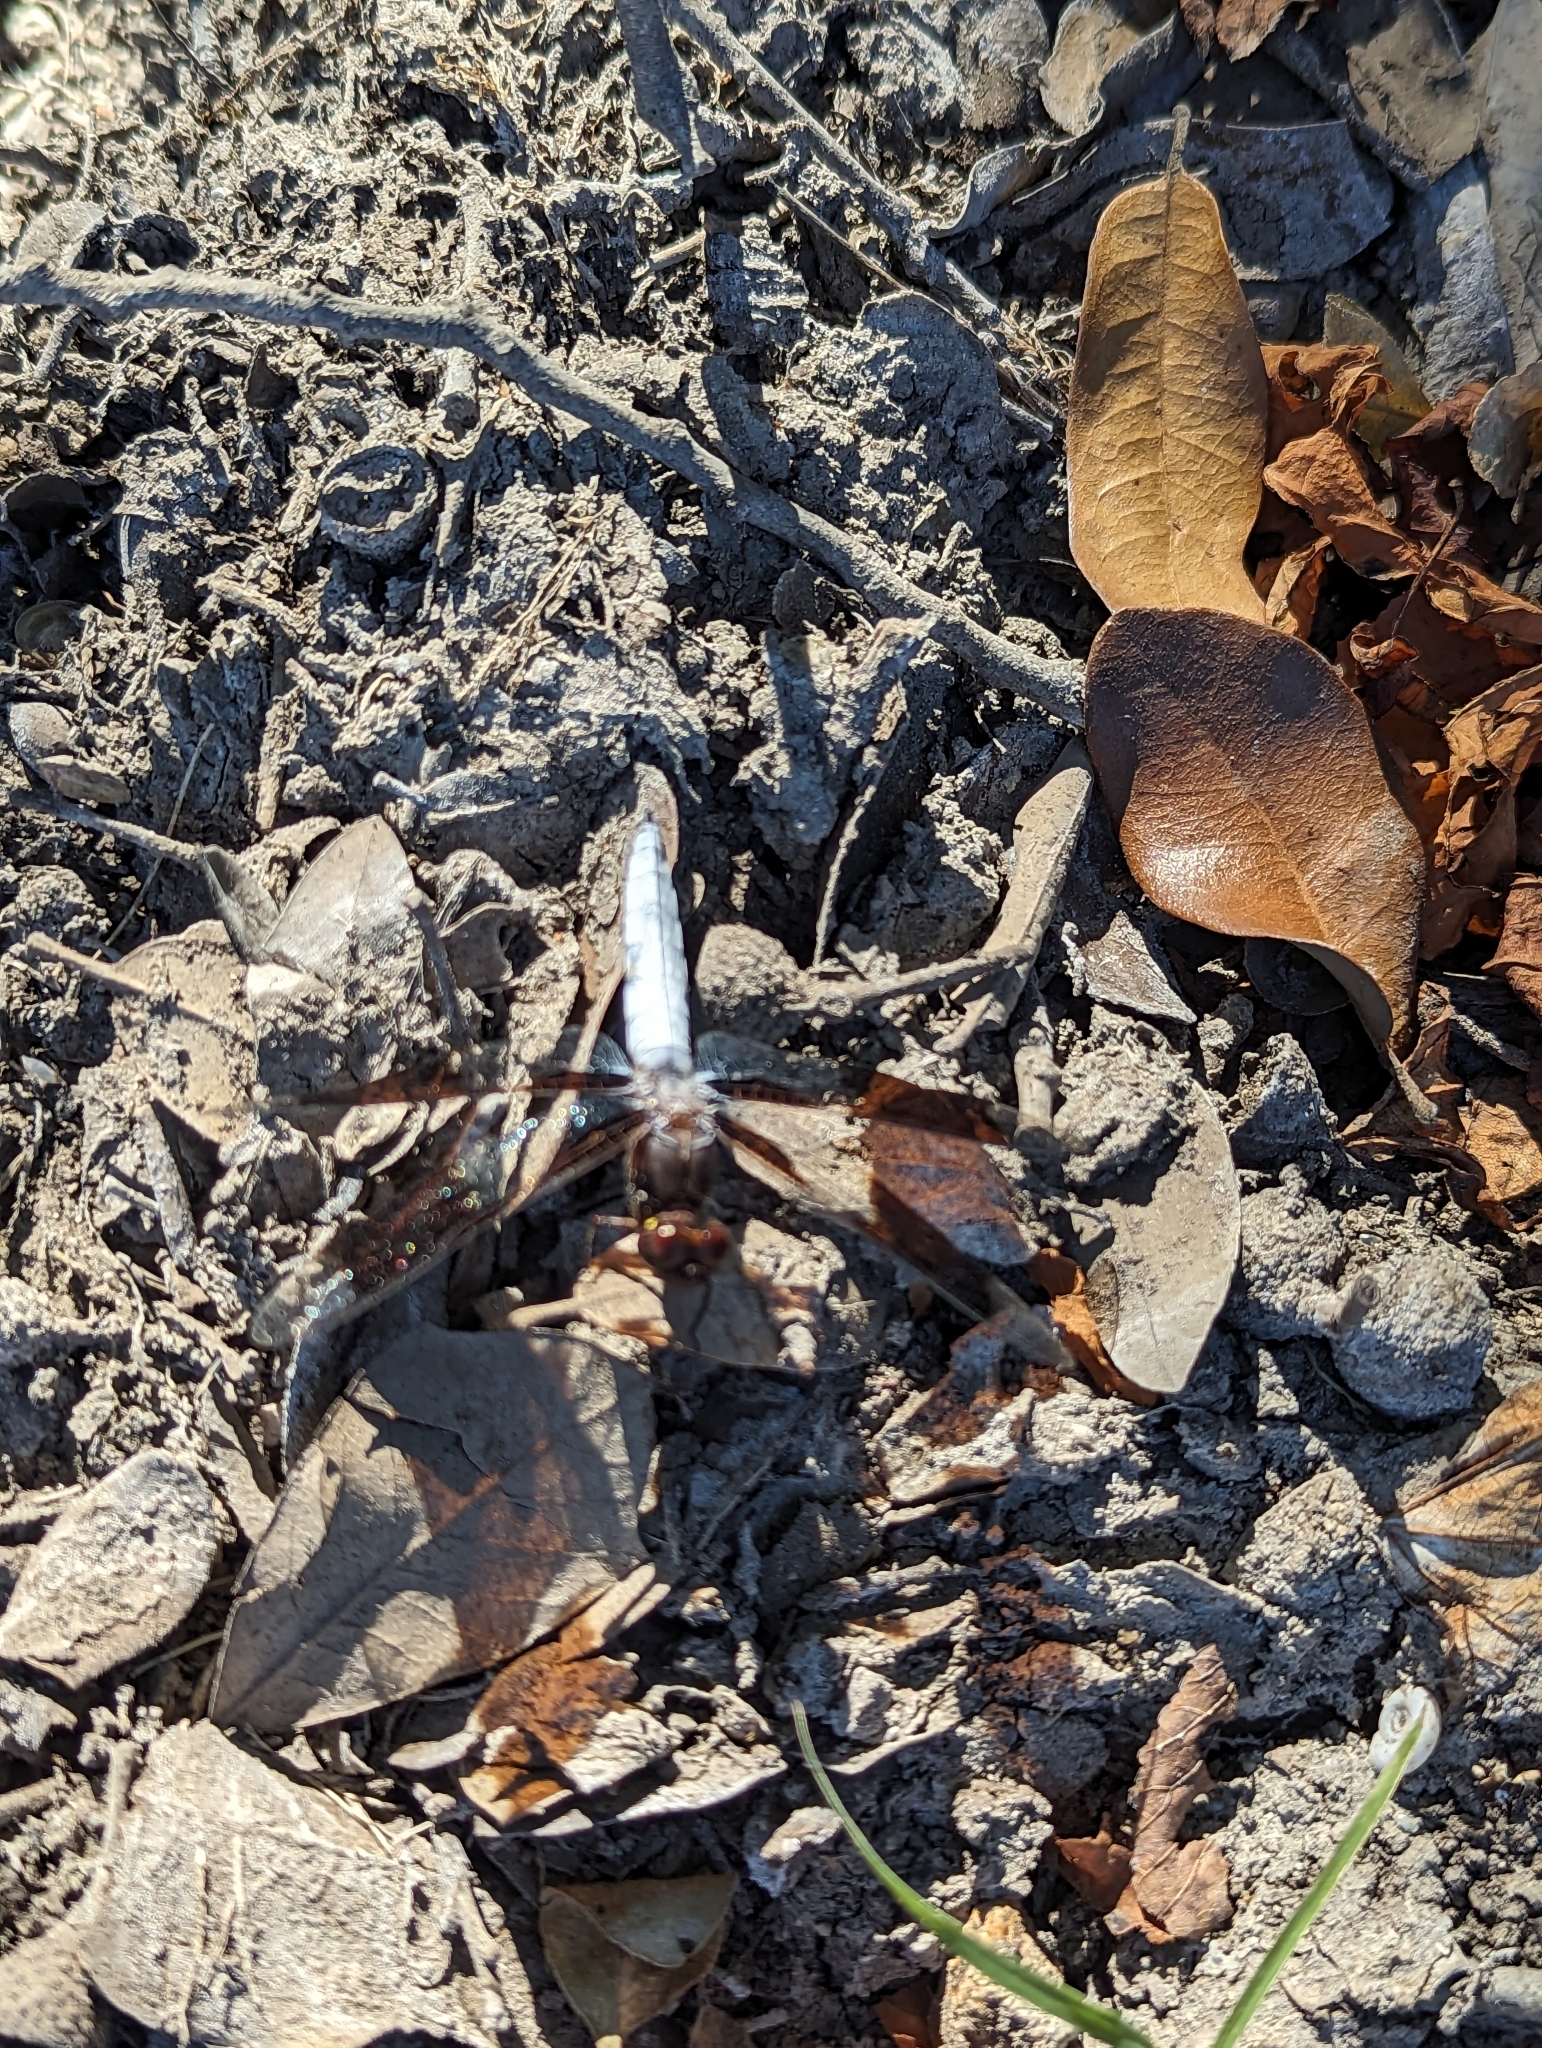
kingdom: Animalia
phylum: Arthropoda
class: Insecta
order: Odonata
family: Libellulidae
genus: Plathemis
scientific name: Plathemis lydia
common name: Common whitetail
